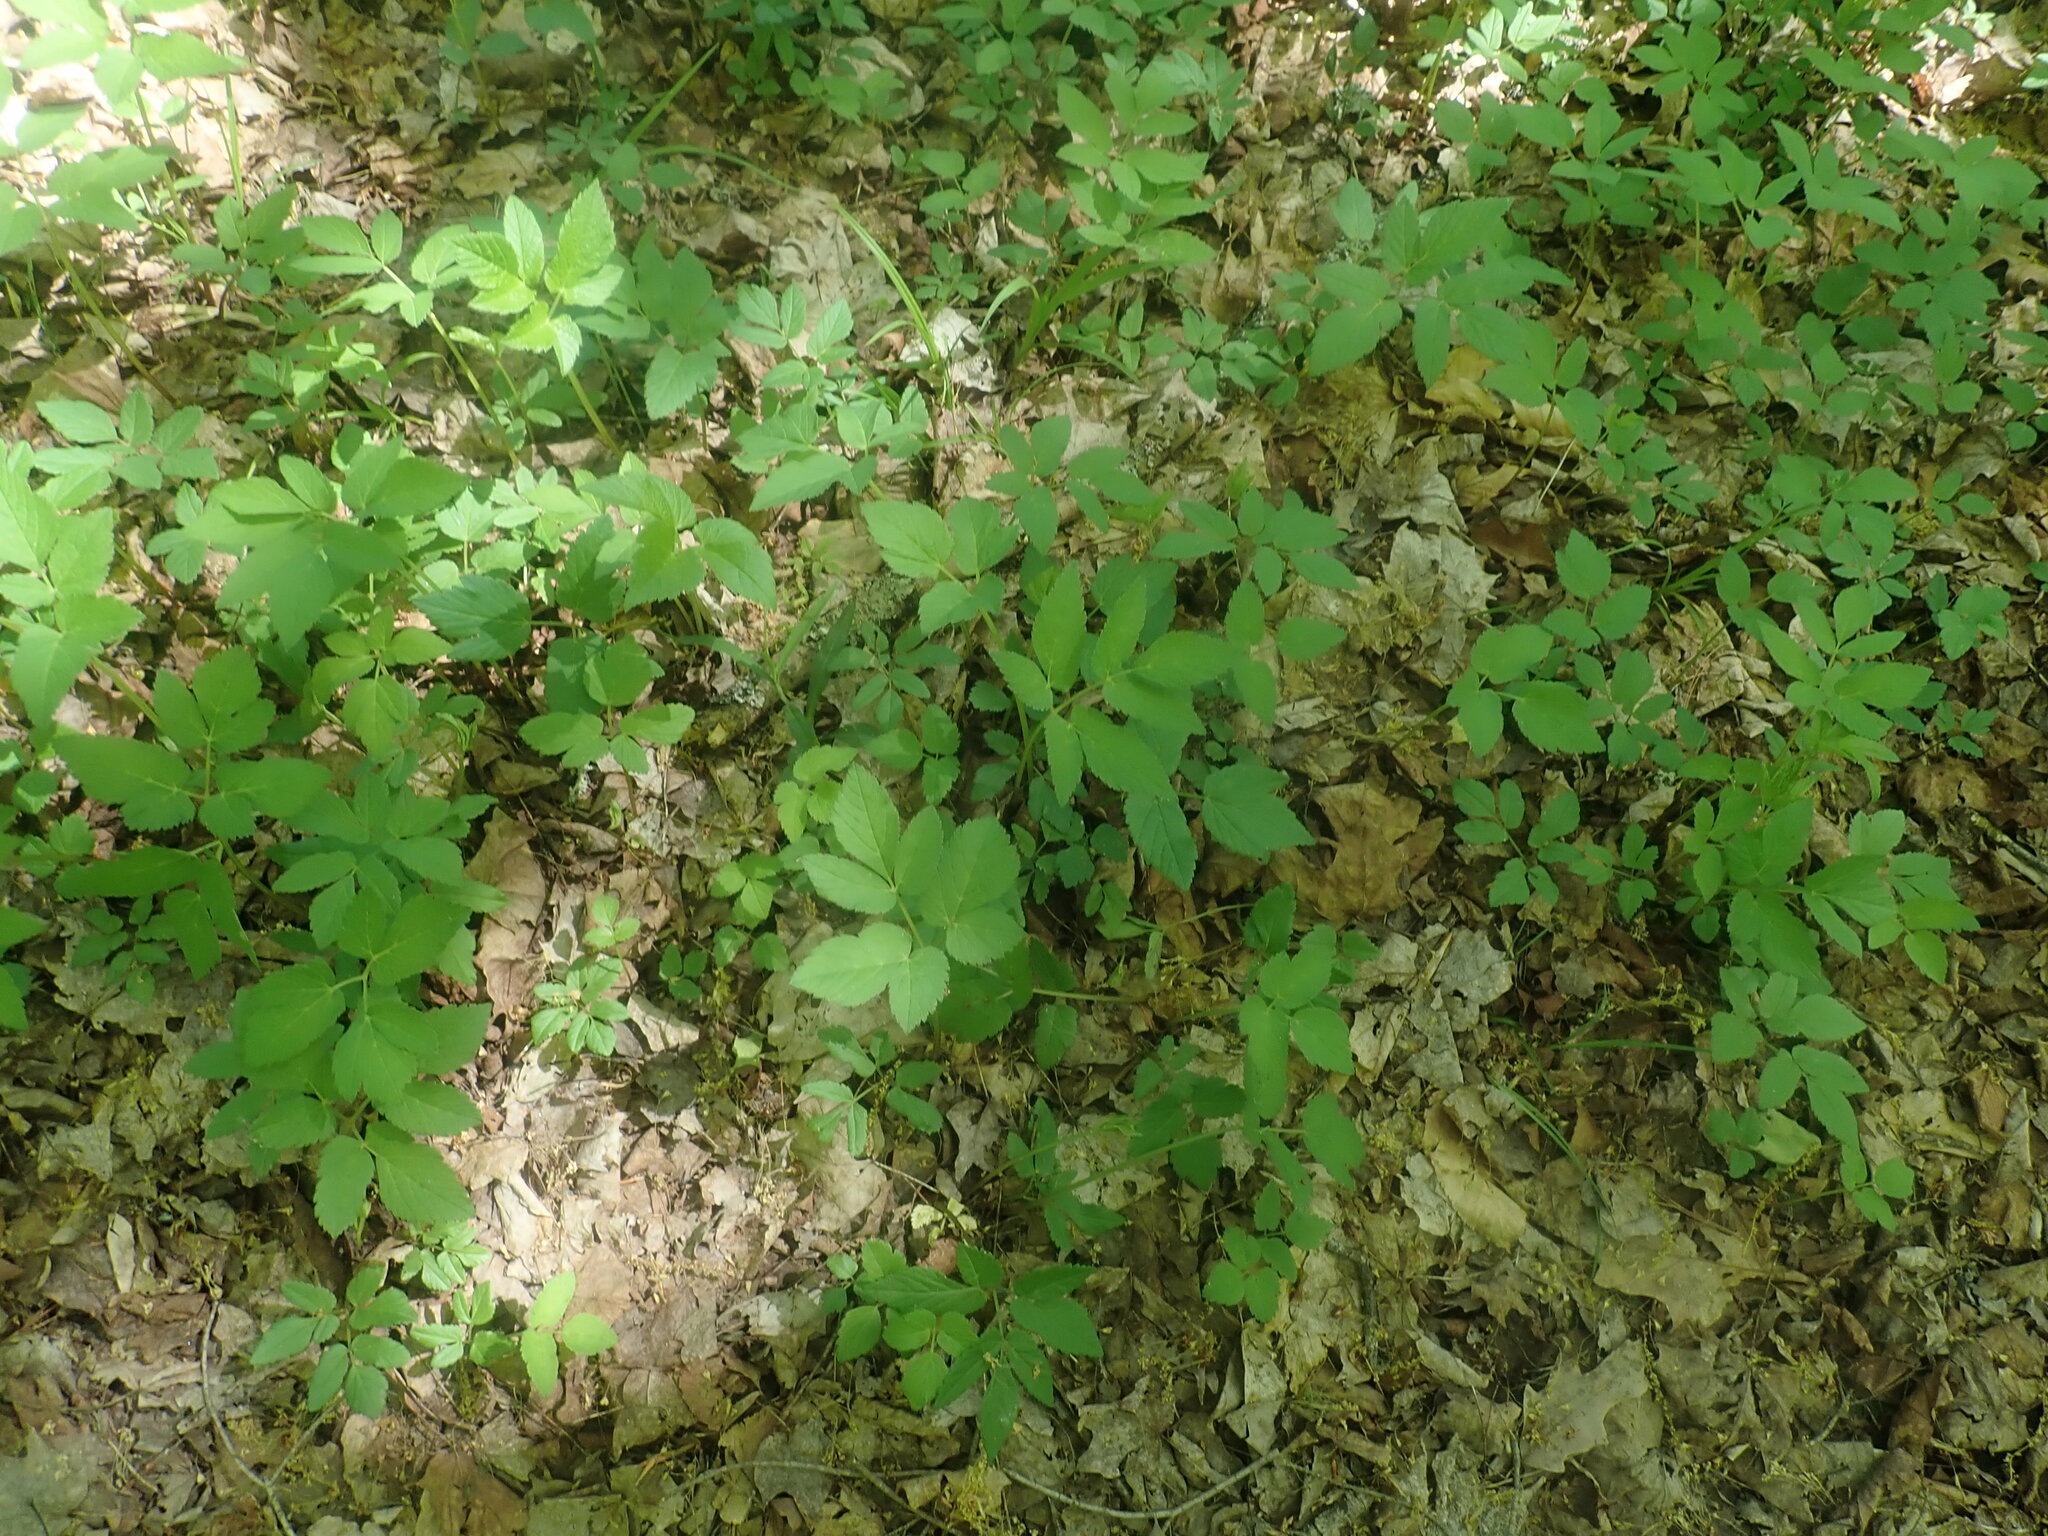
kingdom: Plantae
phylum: Tracheophyta
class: Magnoliopsida
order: Apiales
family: Apiaceae
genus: Aegopodium
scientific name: Aegopodium podagraria
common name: Ground-elder
